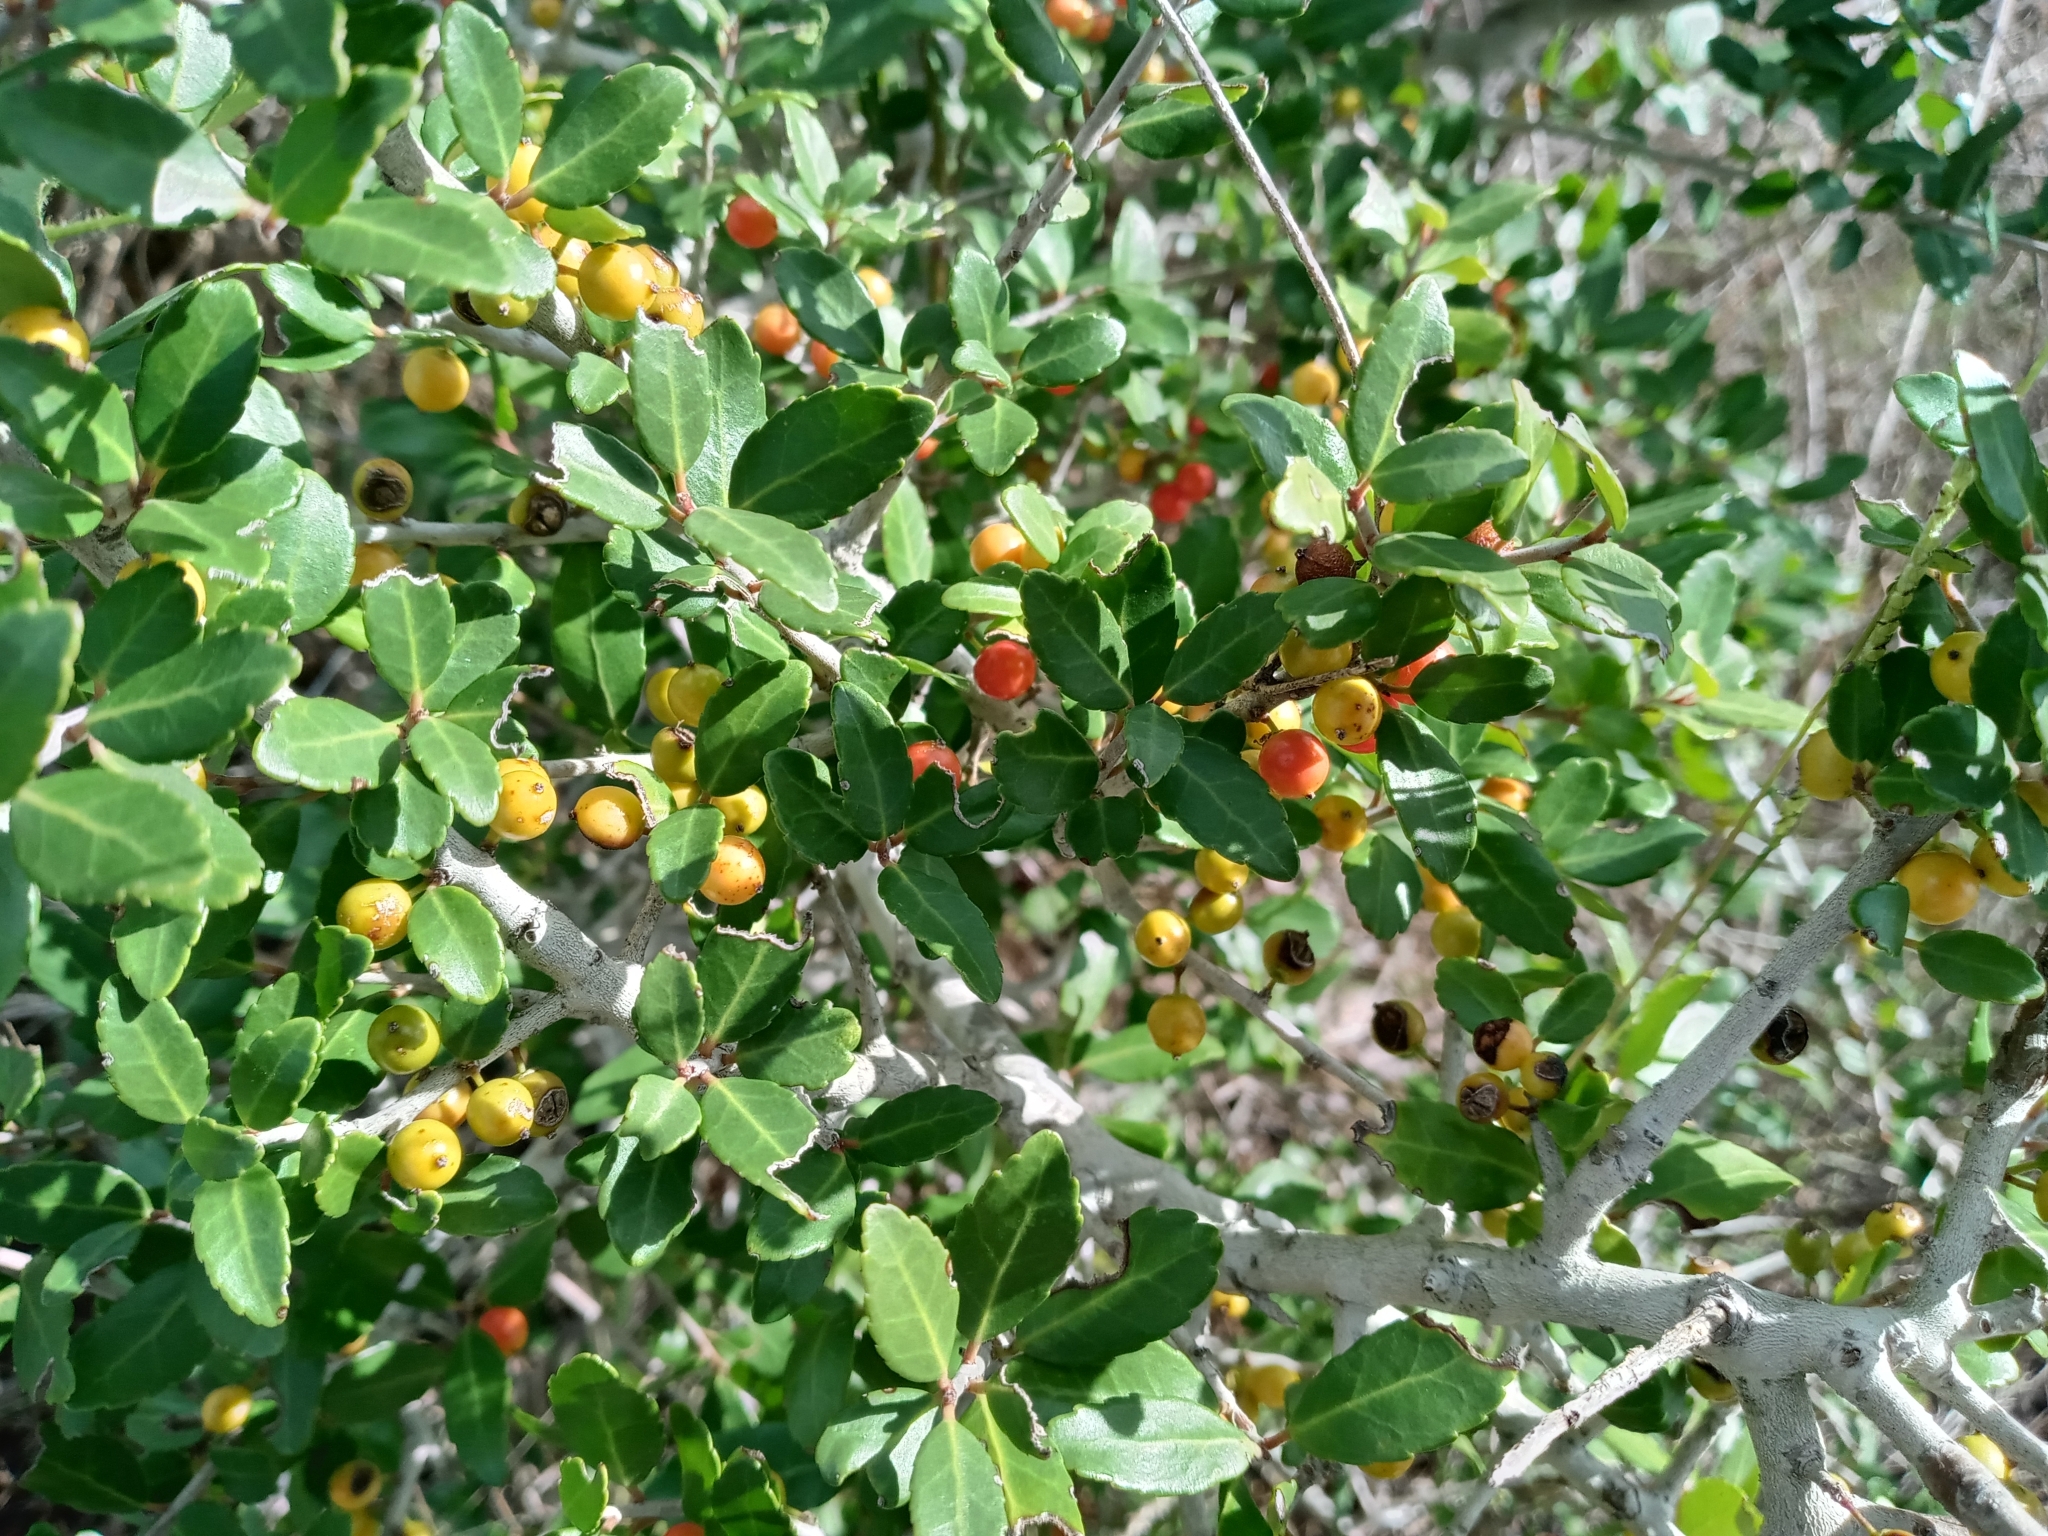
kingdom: Plantae
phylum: Tracheophyta
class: Magnoliopsida
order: Aquifoliales
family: Aquifoliaceae
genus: Ilex
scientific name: Ilex vomitoria
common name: Yaupon holly
